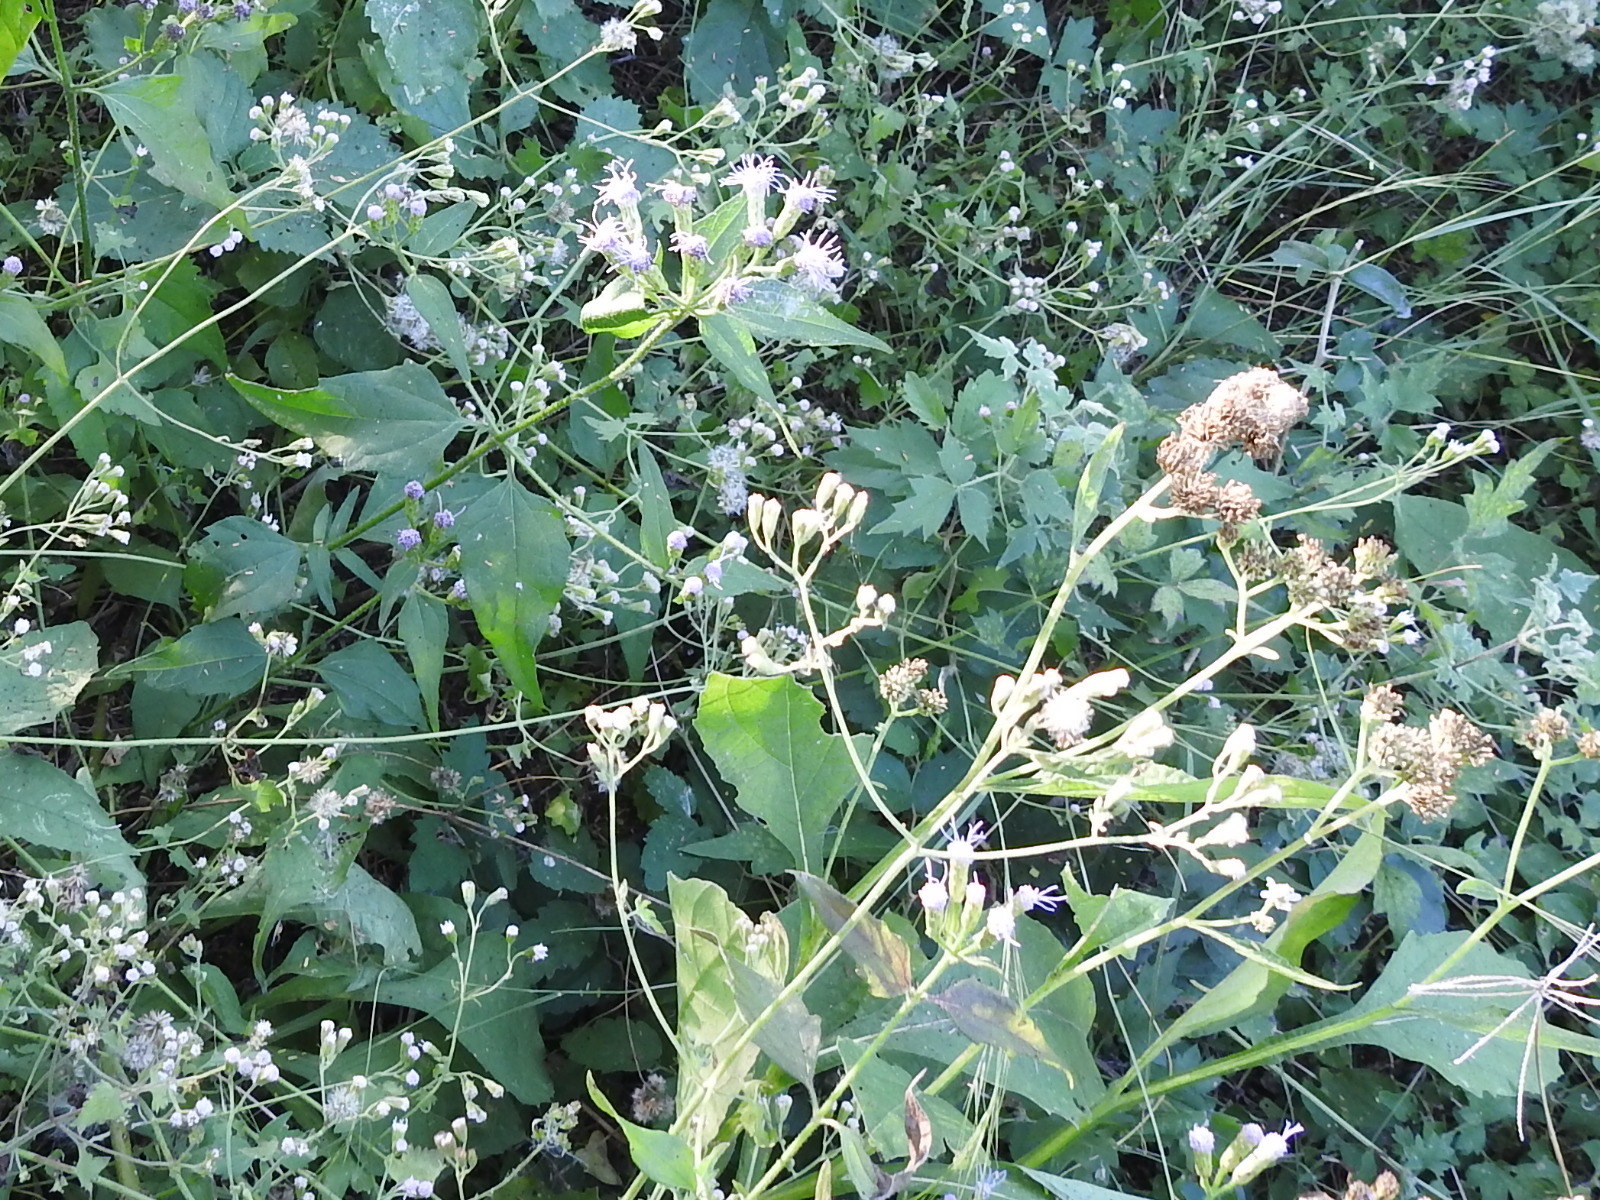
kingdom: Plantae
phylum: Tracheophyta
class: Magnoliopsida
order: Asterales
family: Asteraceae
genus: Chromolaena
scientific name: Chromolaena odorata
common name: Siamweed
